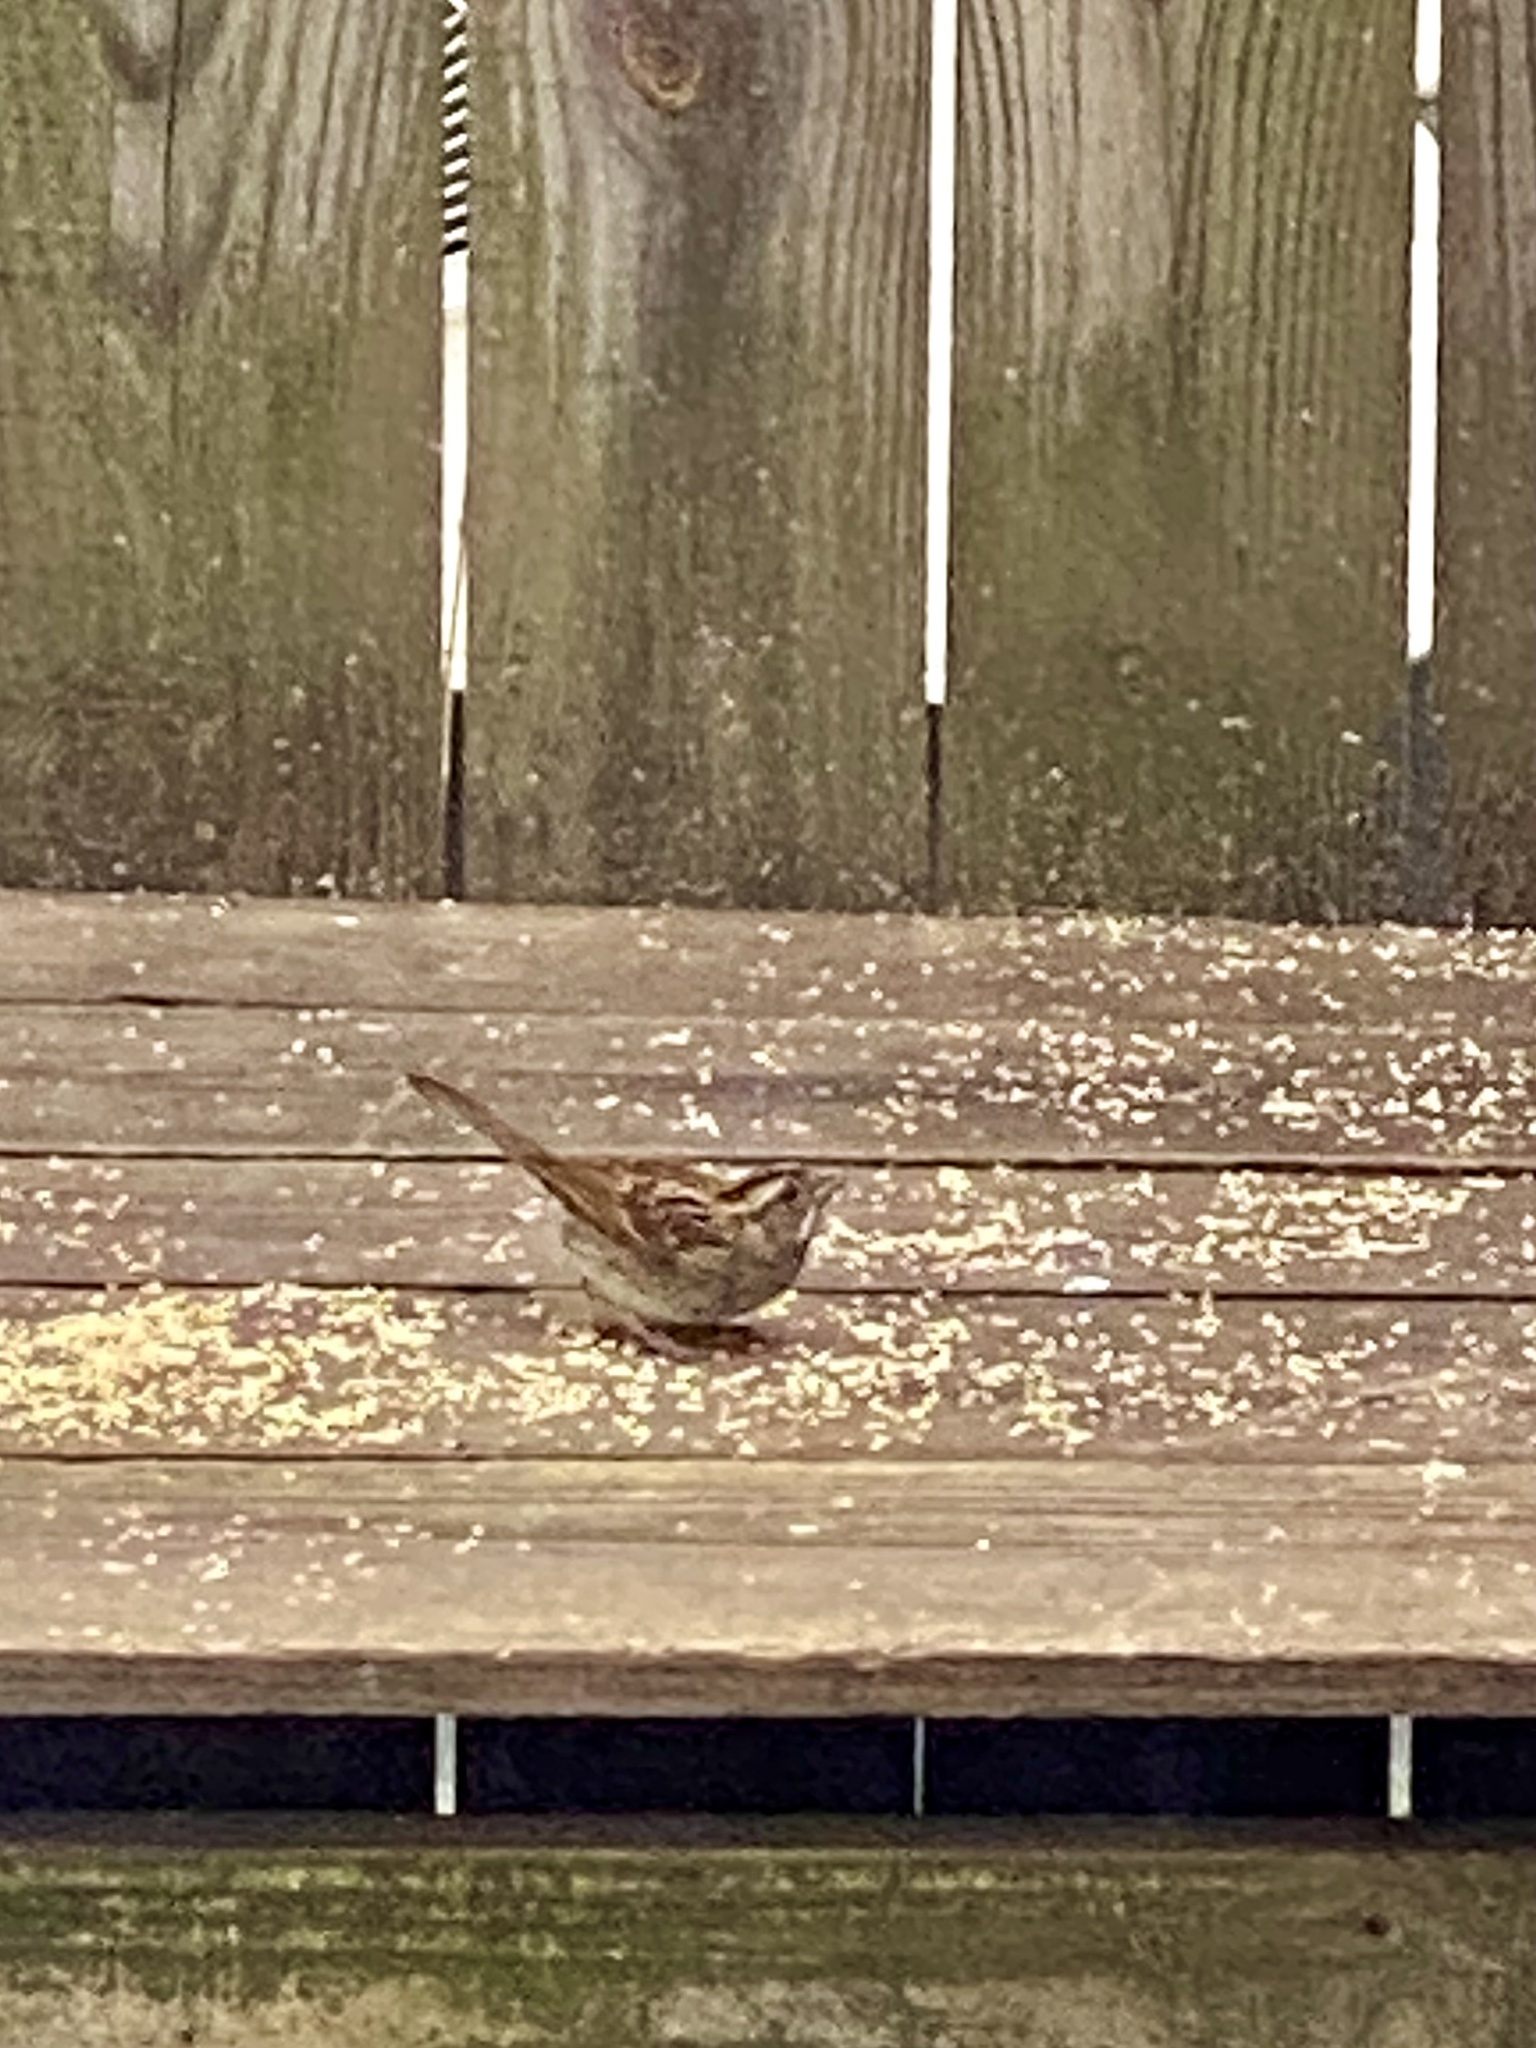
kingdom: Animalia
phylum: Chordata
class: Aves
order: Passeriformes
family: Passerellidae
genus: Zonotrichia
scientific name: Zonotrichia albicollis
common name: White-throated sparrow
